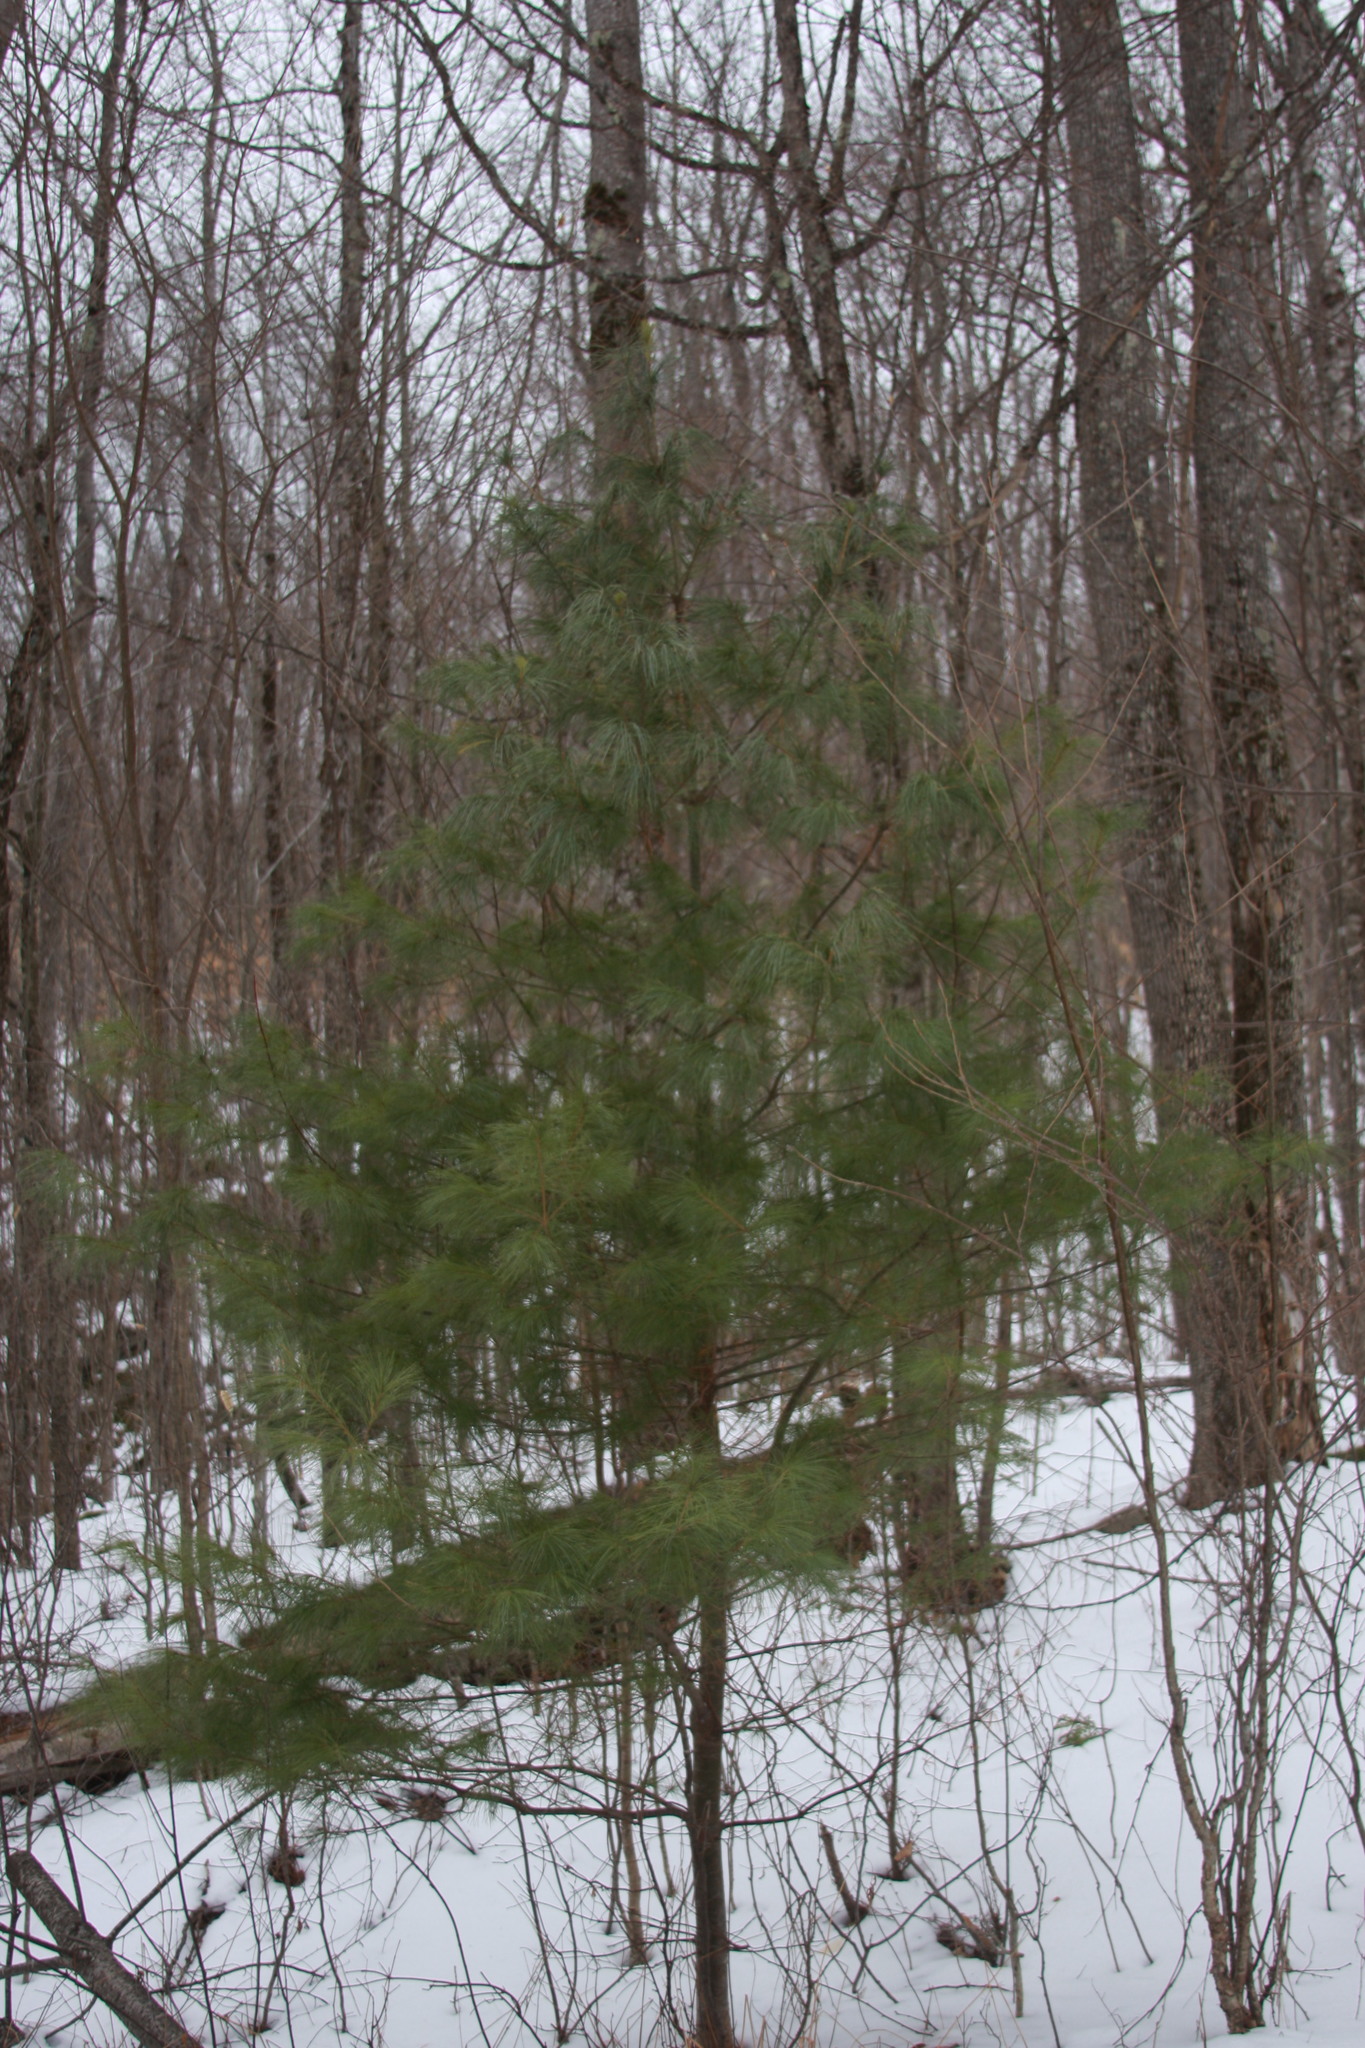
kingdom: Plantae
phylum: Tracheophyta
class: Pinopsida
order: Pinales
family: Pinaceae
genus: Pinus
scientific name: Pinus strobus
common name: Weymouth pine
